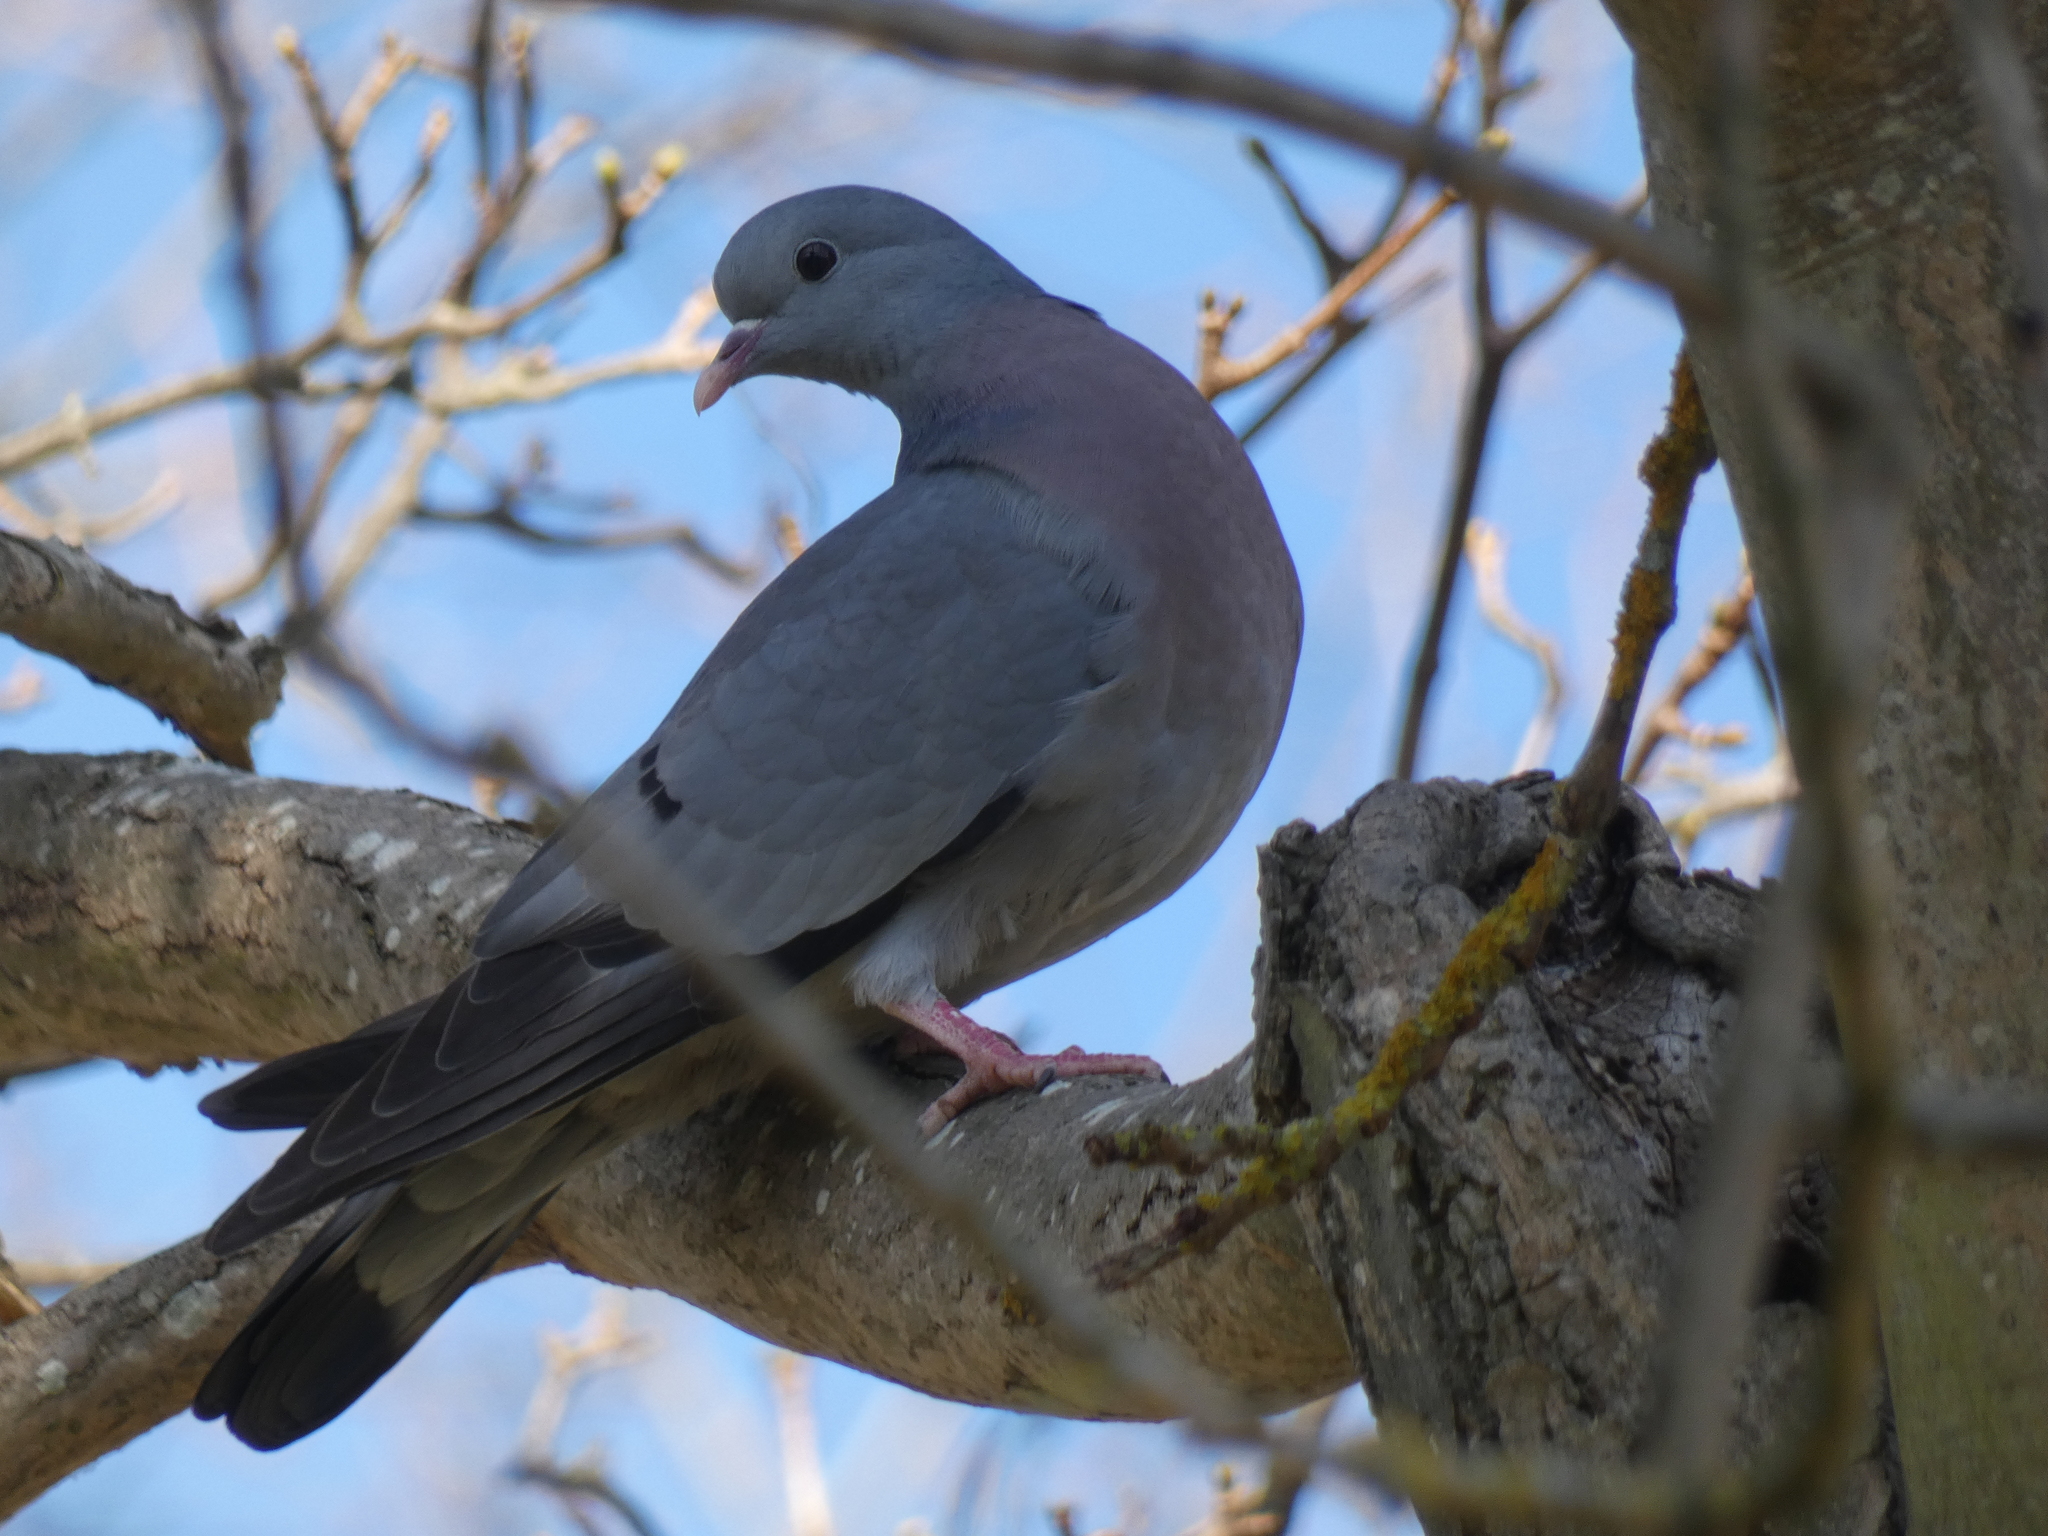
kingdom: Animalia
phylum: Chordata
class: Aves
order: Columbiformes
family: Columbidae
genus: Columba
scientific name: Columba oenas
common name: Stock dove
